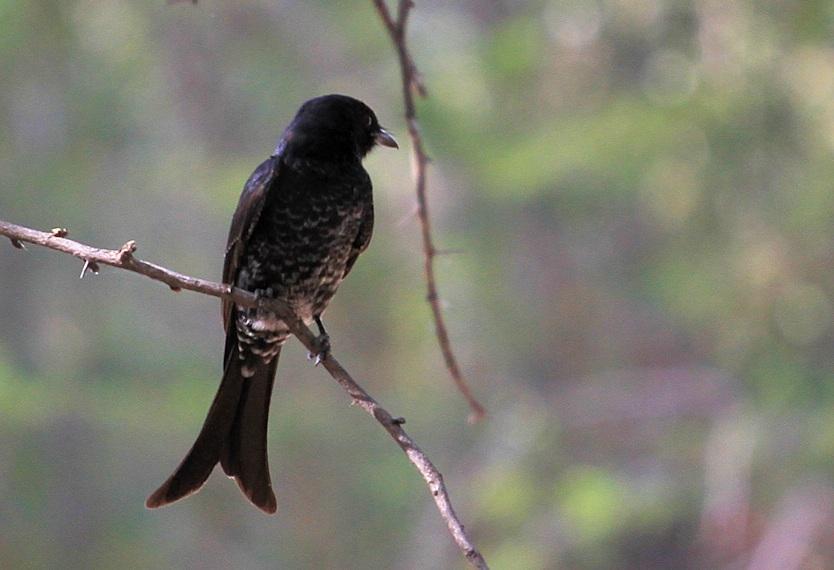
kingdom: Animalia
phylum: Chordata
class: Aves
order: Passeriformes
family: Dicruridae
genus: Dicrurus
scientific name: Dicrurus adsimilis
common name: Fork-tailed drongo
